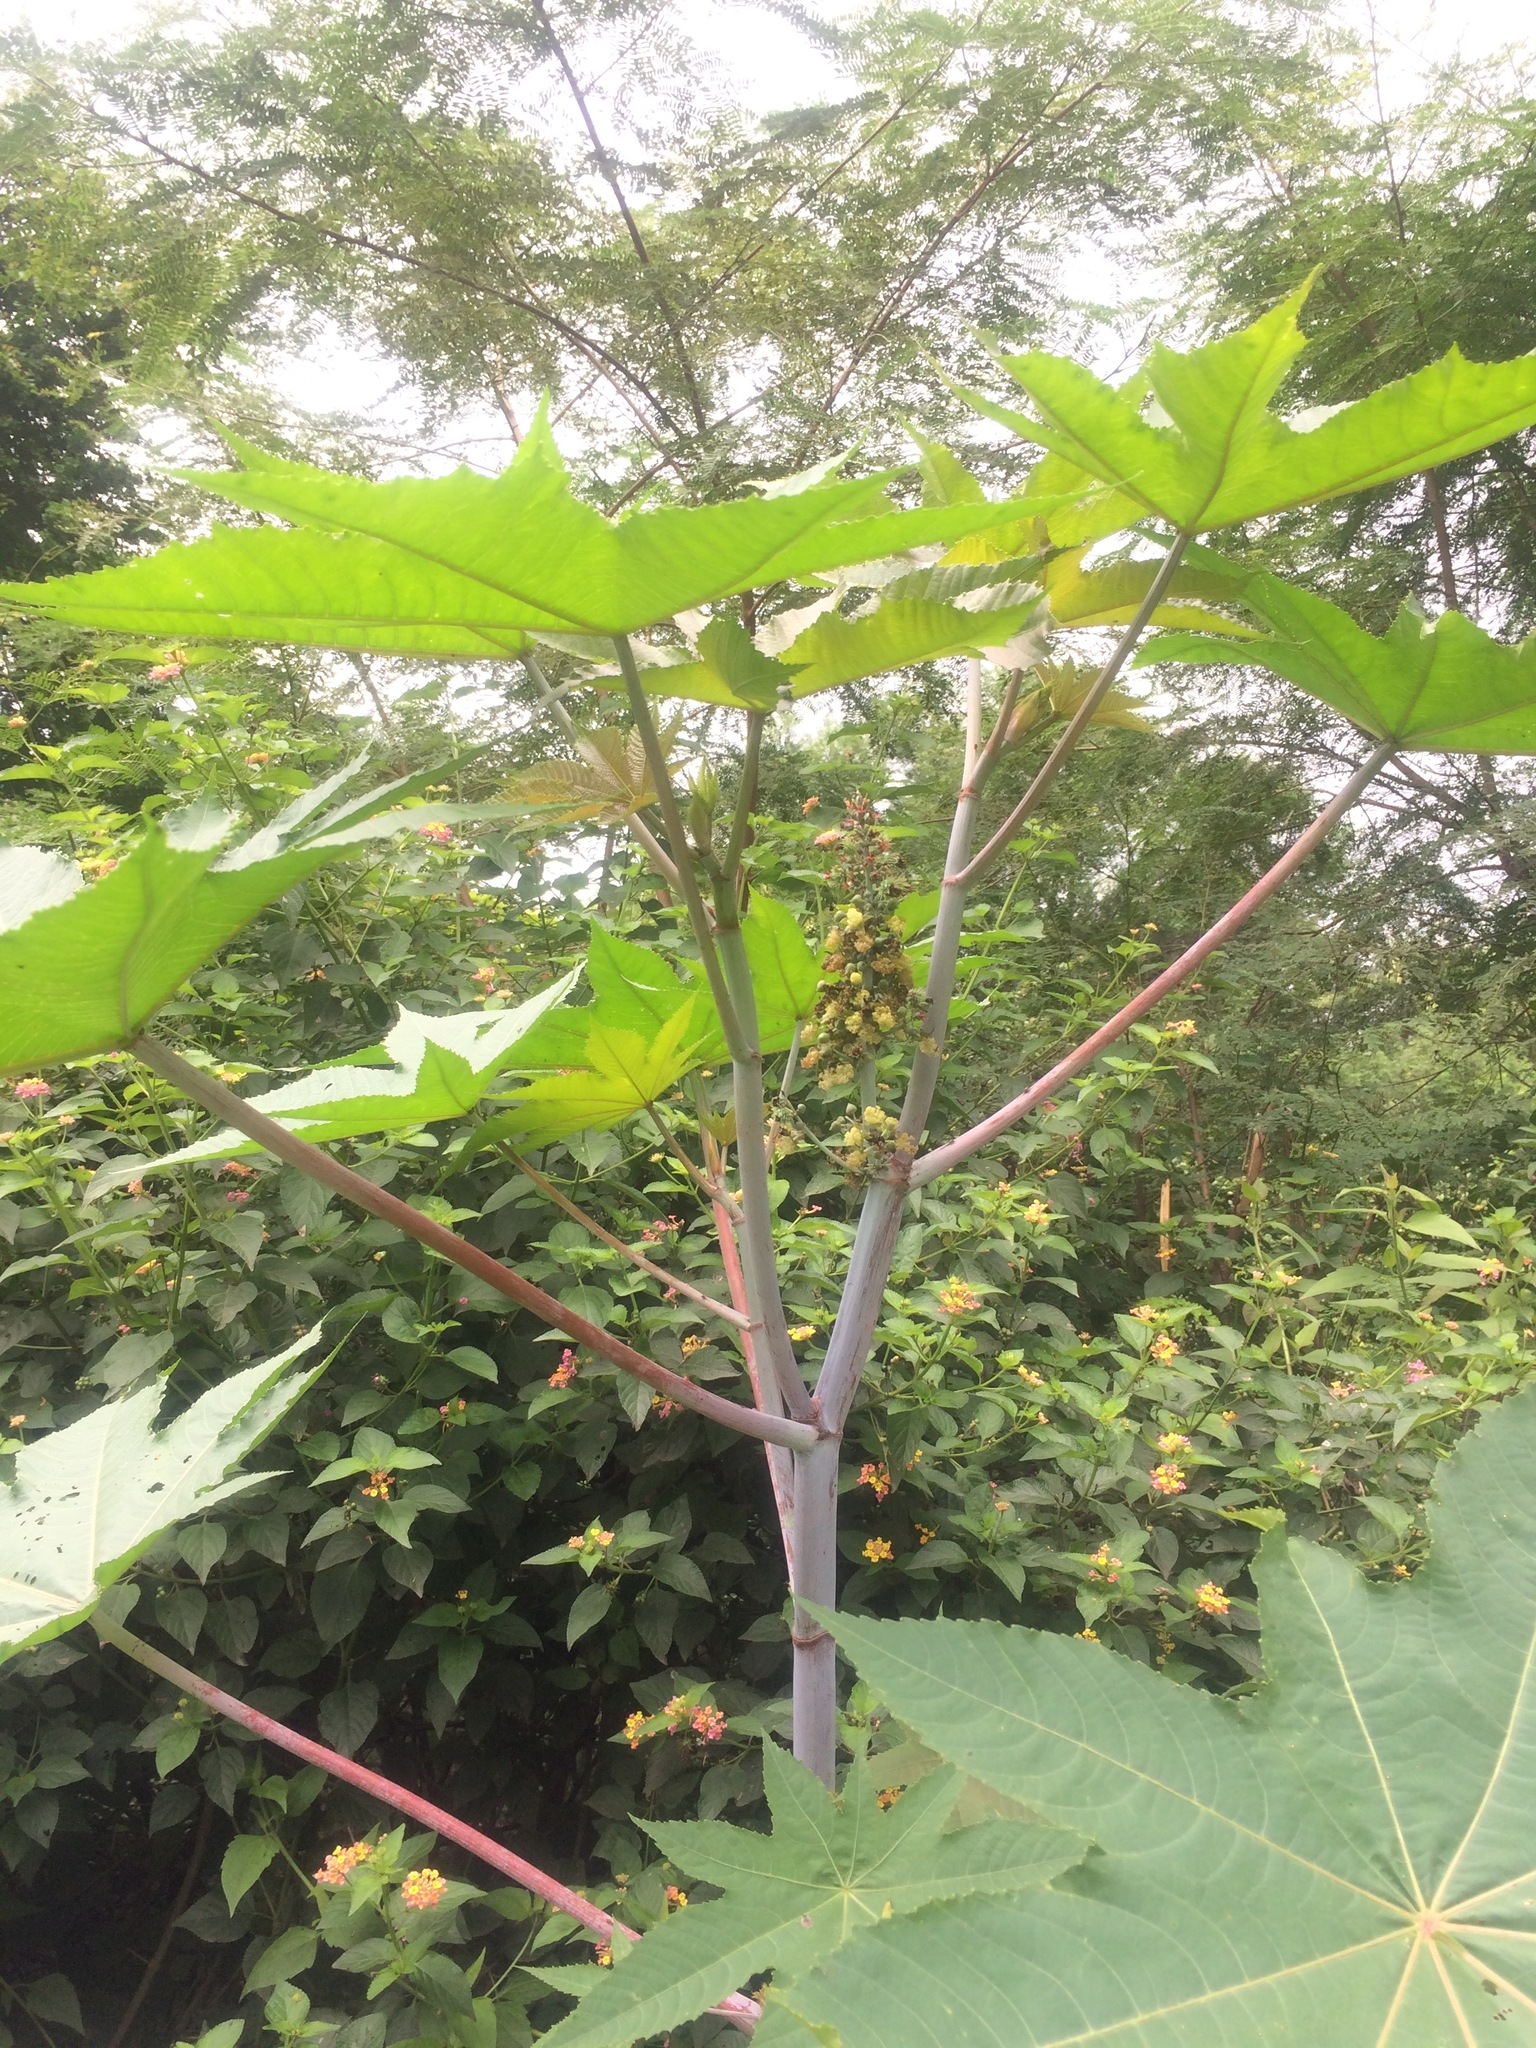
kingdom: Plantae
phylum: Tracheophyta
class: Magnoliopsida
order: Malpighiales
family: Euphorbiaceae
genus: Ricinus
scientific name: Ricinus communis
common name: Castor-oil-plant
